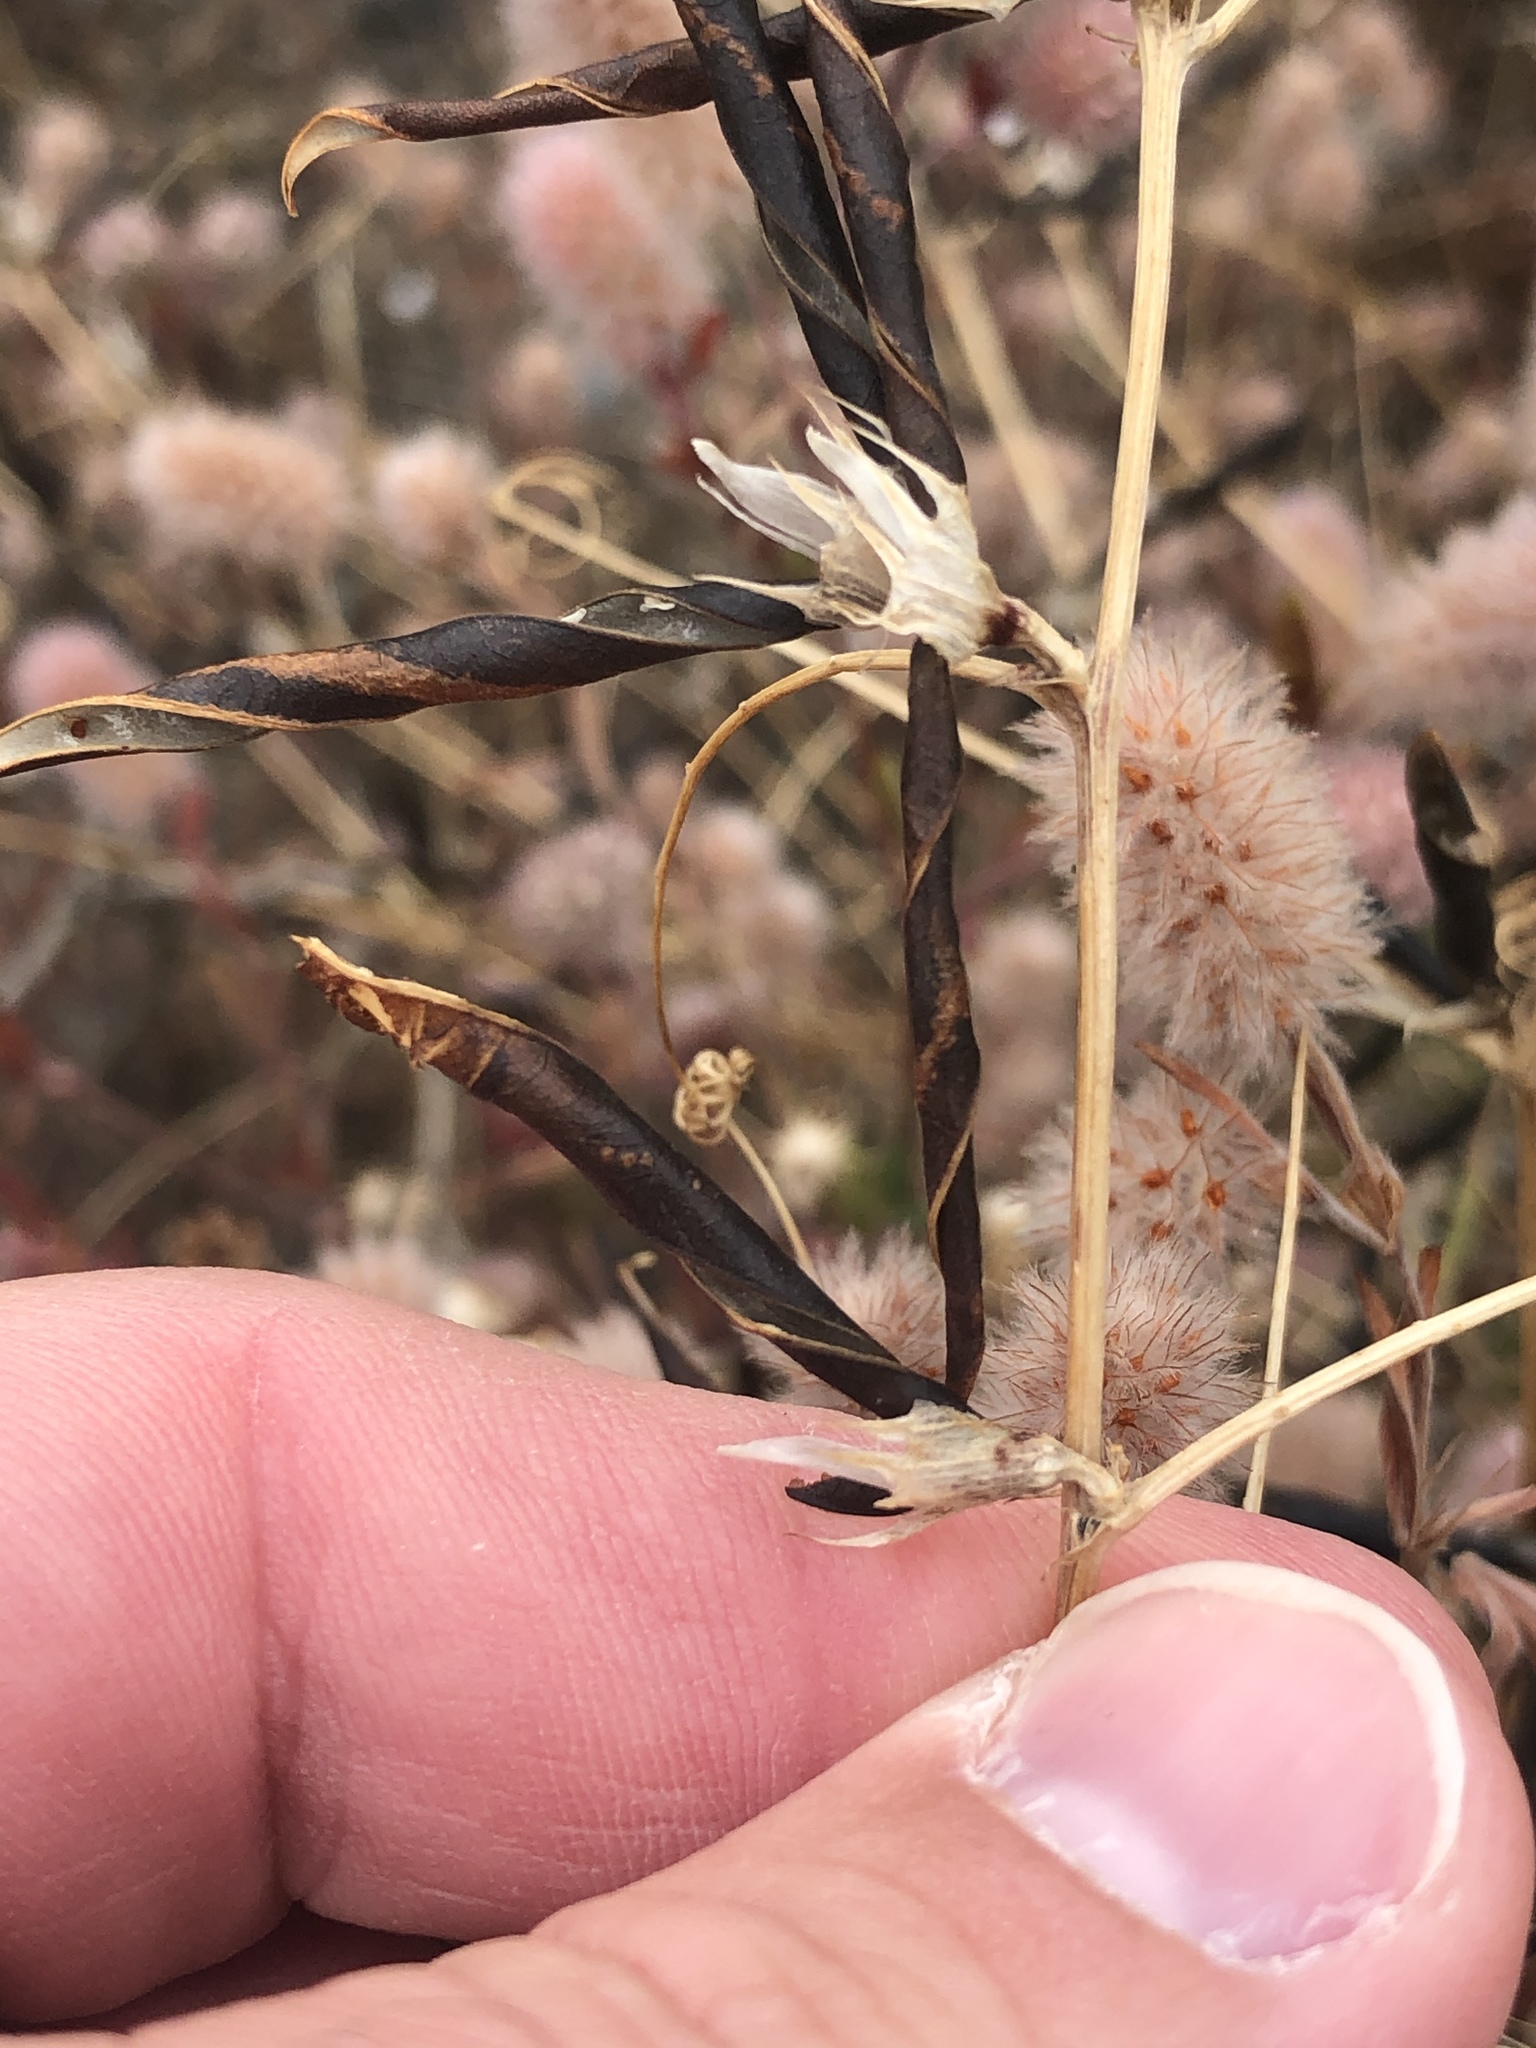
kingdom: Plantae
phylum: Tracheophyta
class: Magnoliopsida
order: Fabales
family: Fabaceae
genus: Vicia
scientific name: Vicia sativa
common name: Garden vetch
